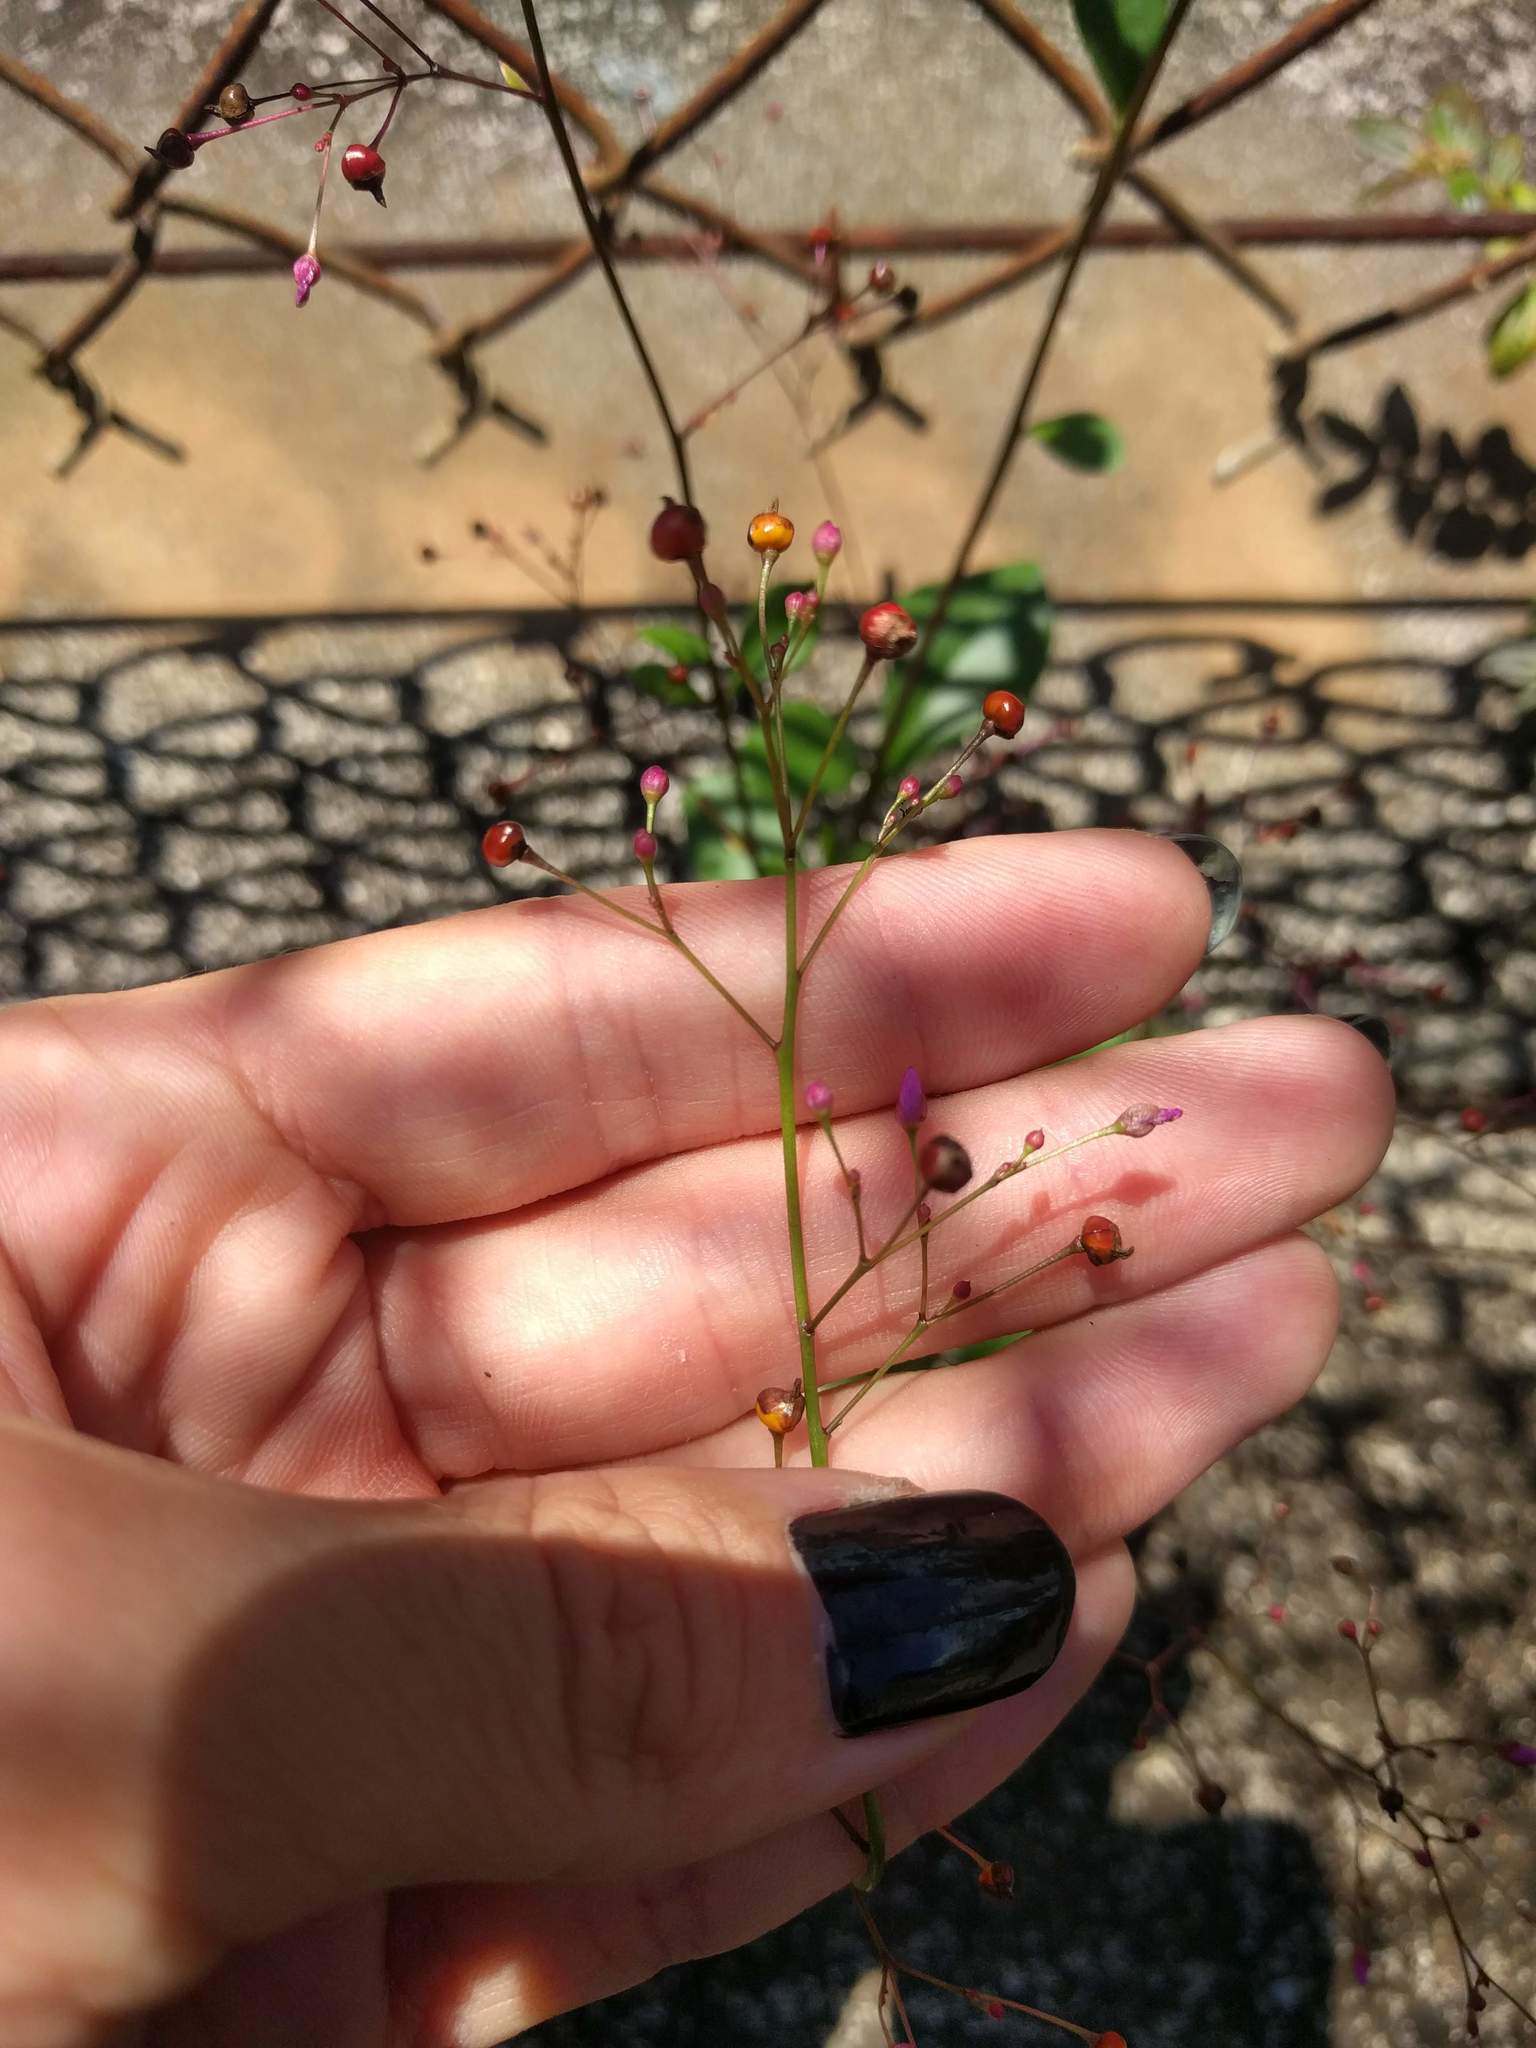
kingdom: Plantae
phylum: Tracheophyta
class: Magnoliopsida
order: Caryophyllales
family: Talinaceae
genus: Talinum
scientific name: Talinum paniculatum
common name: Jewels of opar
